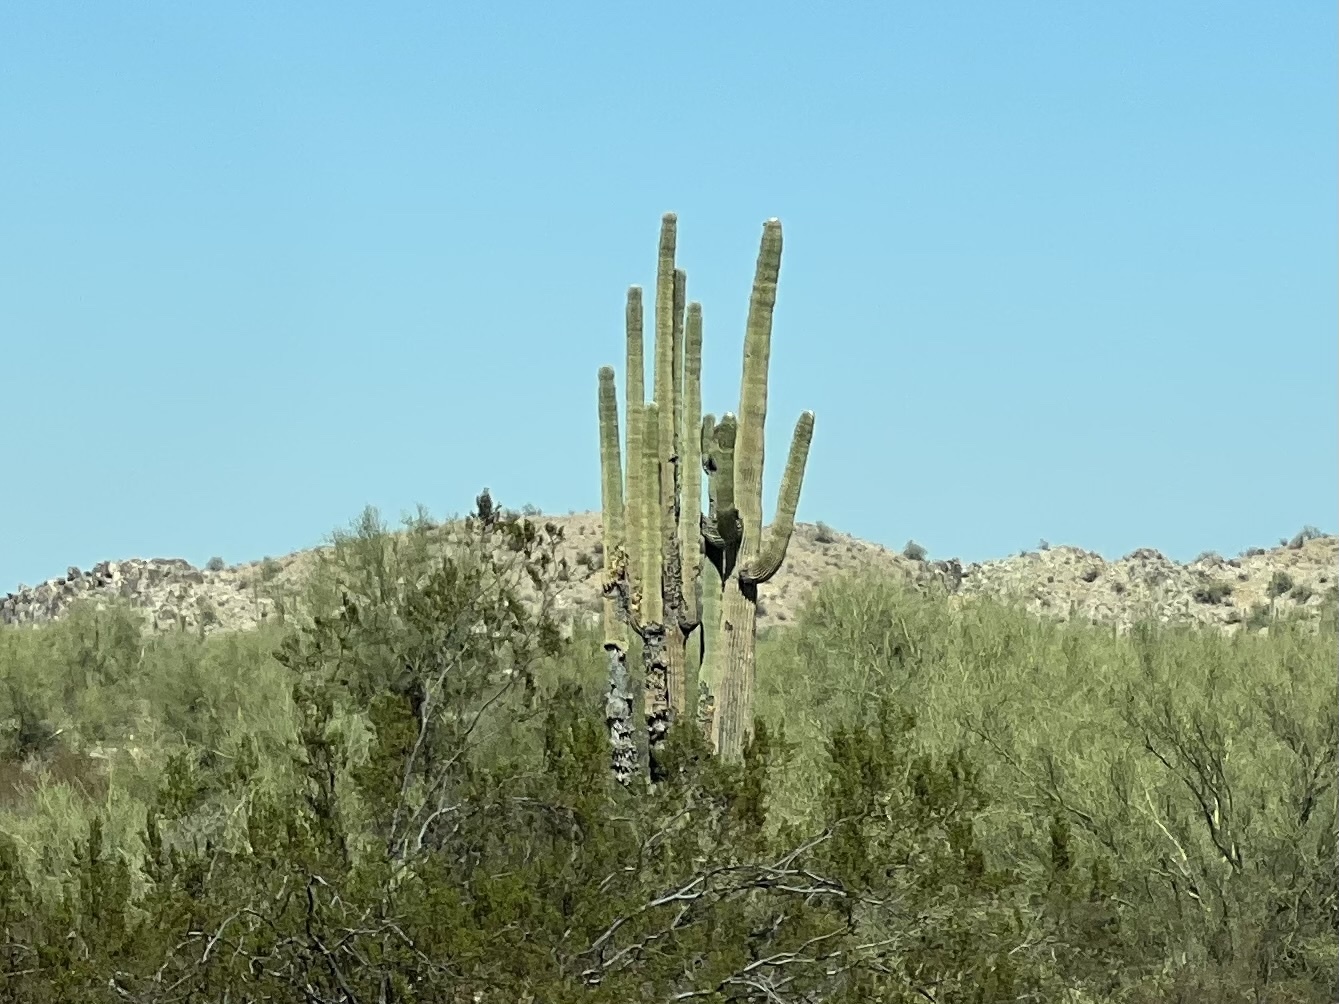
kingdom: Plantae
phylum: Tracheophyta
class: Magnoliopsida
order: Caryophyllales
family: Cactaceae
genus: Carnegiea
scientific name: Carnegiea gigantea
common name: Saguaro
